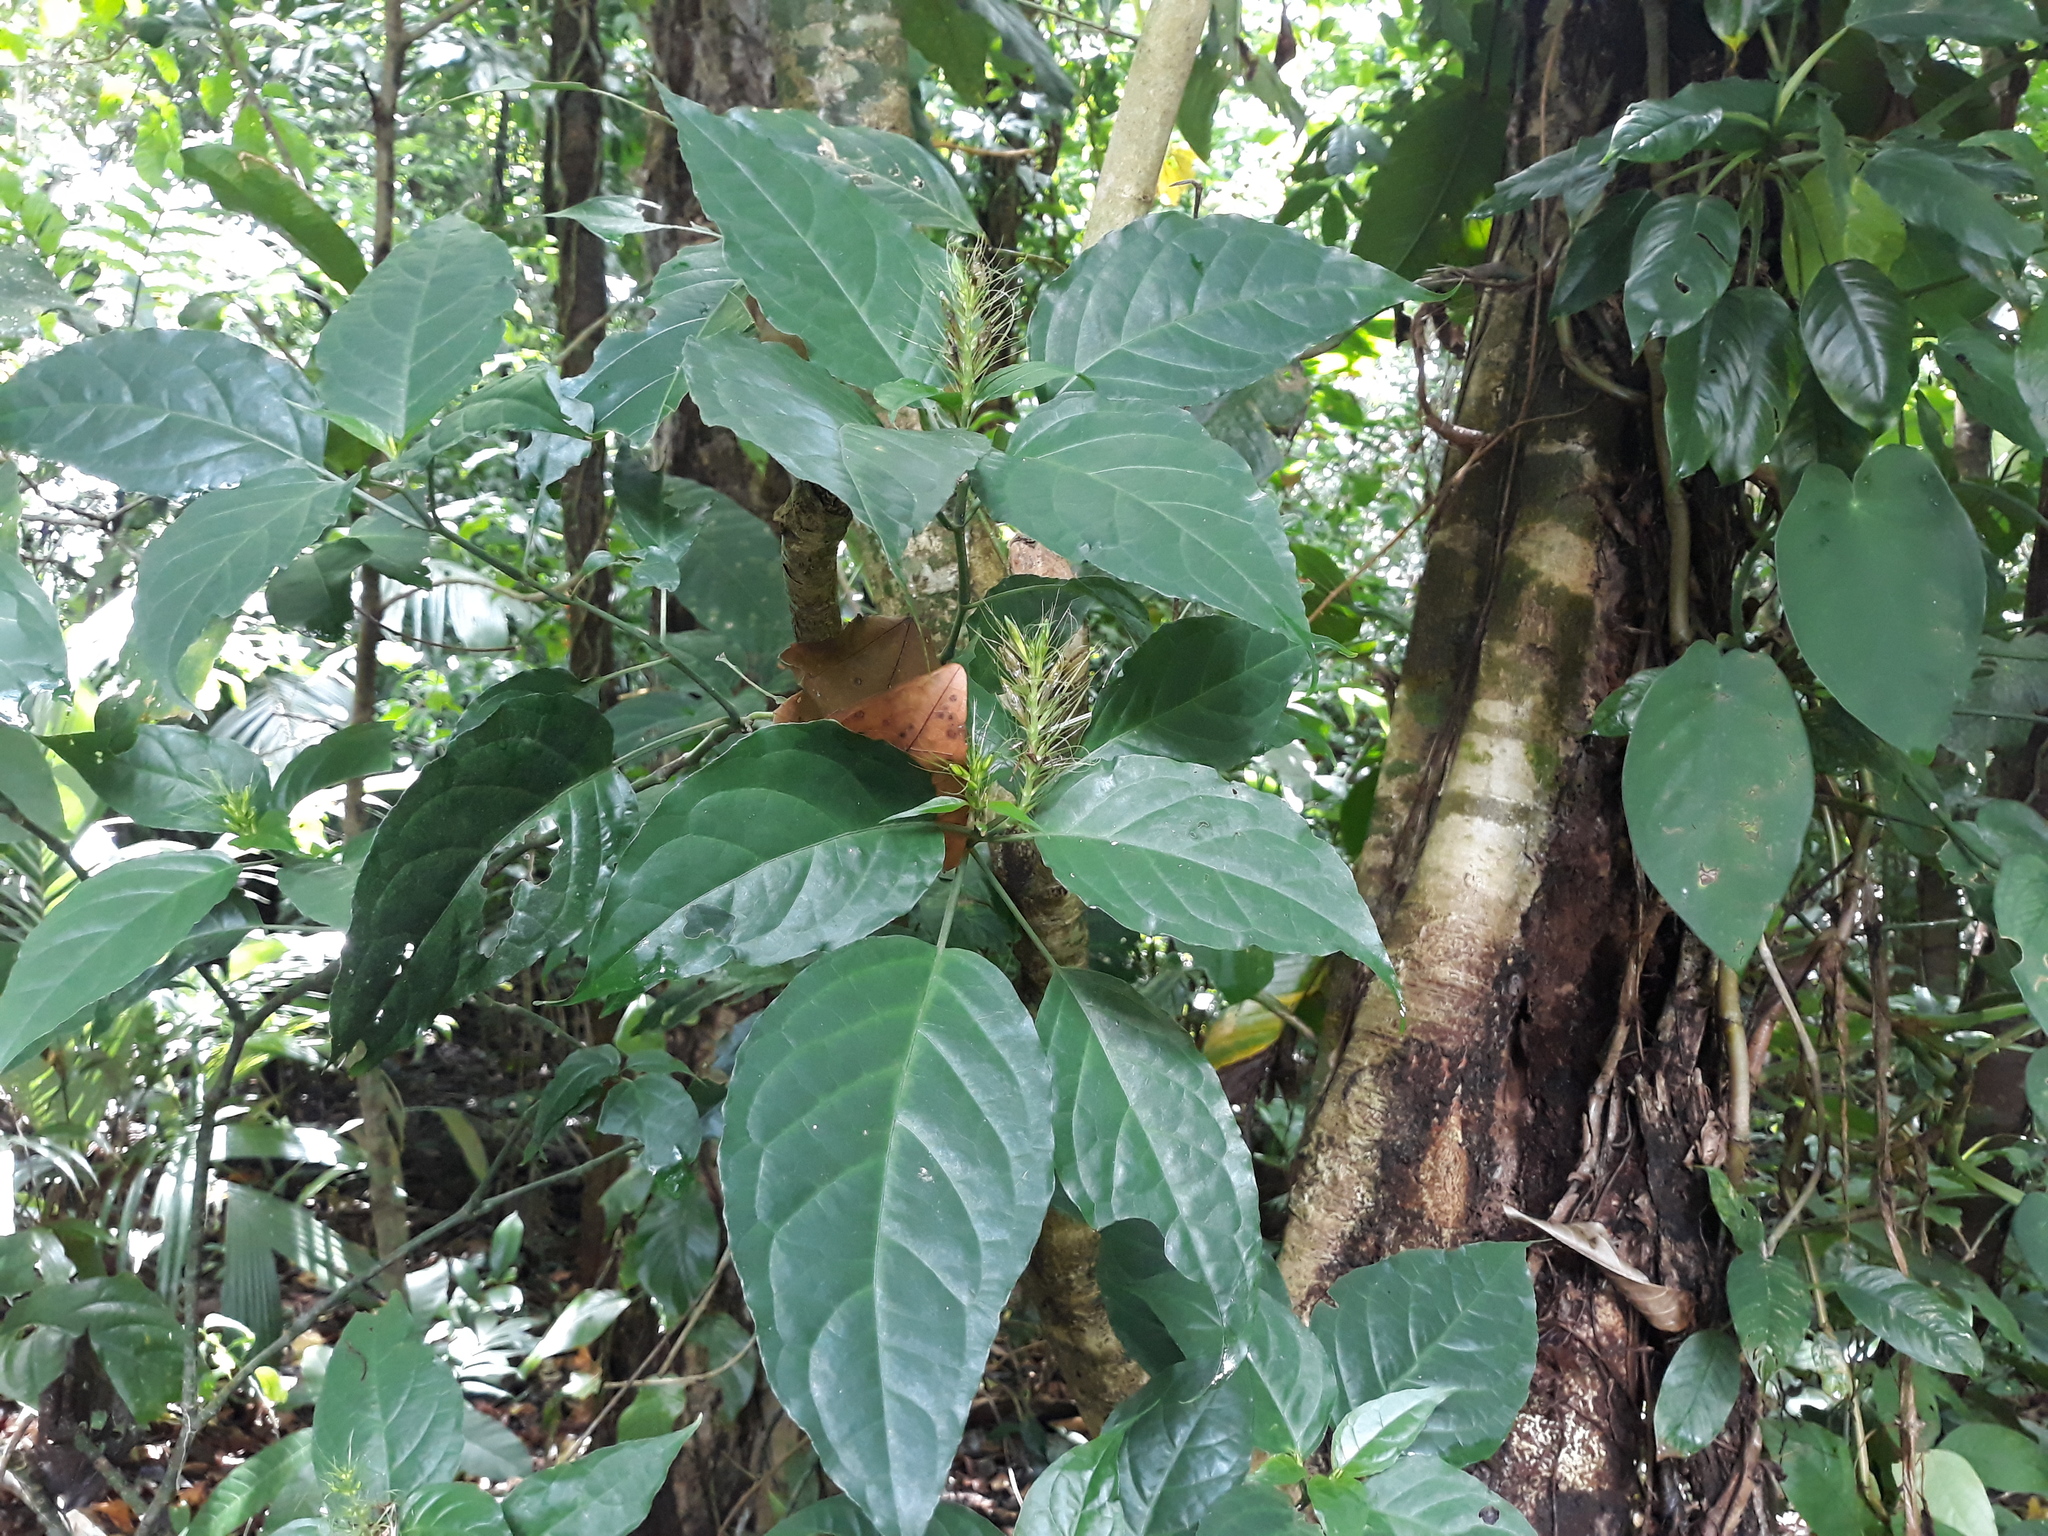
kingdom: Plantae
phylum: Tracheophyta
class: Magnoliopsida
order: Lamiales
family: Acanthaceae
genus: Schaueria
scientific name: Schaueria parviflora
